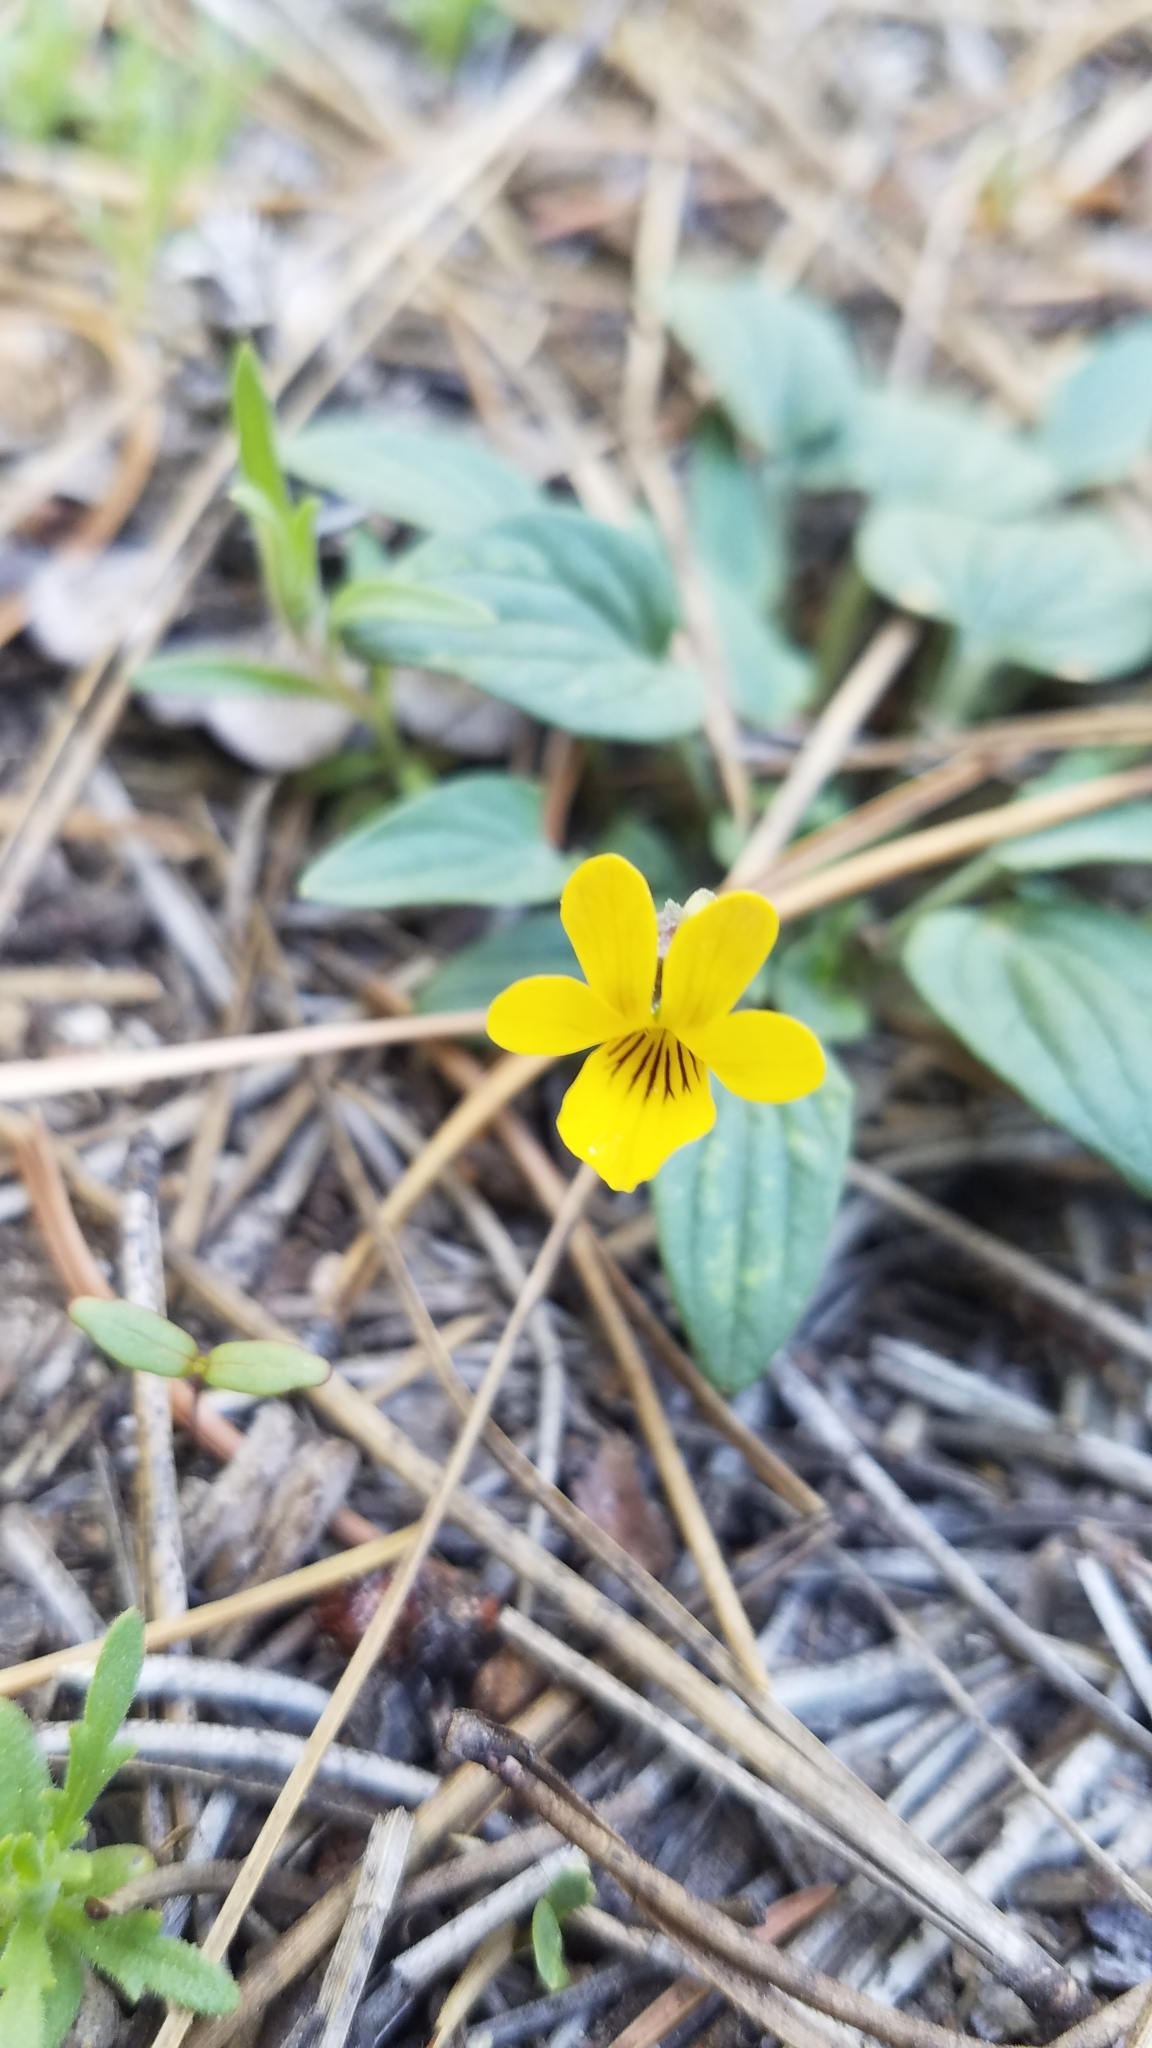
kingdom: Plantae
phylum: Tracheophyta
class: Magnoliopsida
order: Malpighiales
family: Violaceae
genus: Viola
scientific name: Viola purpurea
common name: Pine violet
